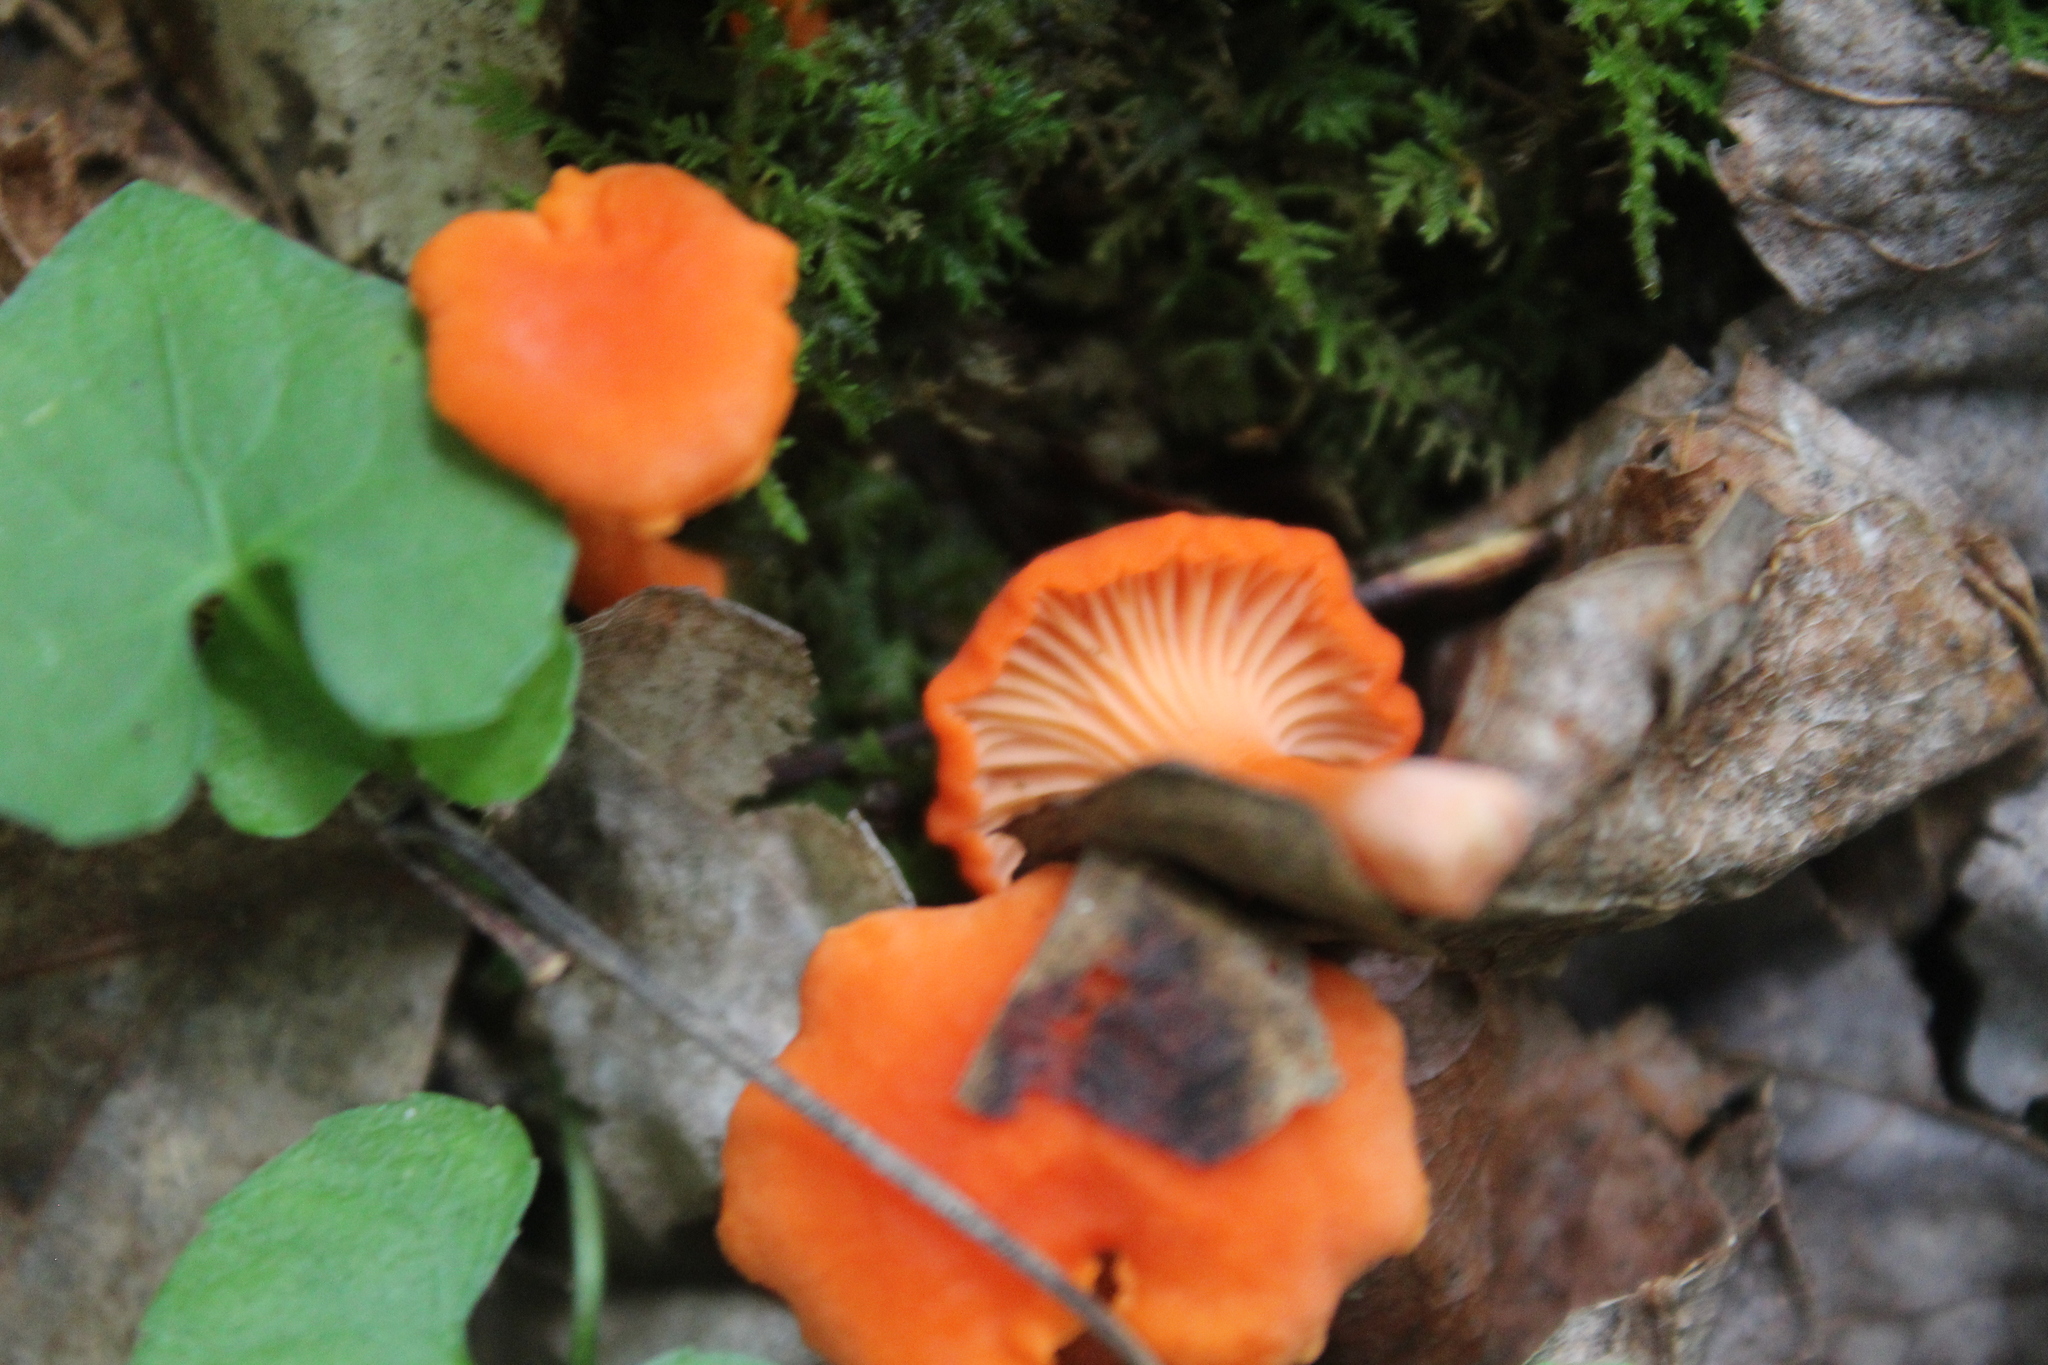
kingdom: Fungi
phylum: Basidiomycota
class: Agaricomycetes
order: Cantharellales
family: Hydnaceae
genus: Cantharellus
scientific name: Cantharellus cinnabarinus
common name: Cinnabar chanterelle
